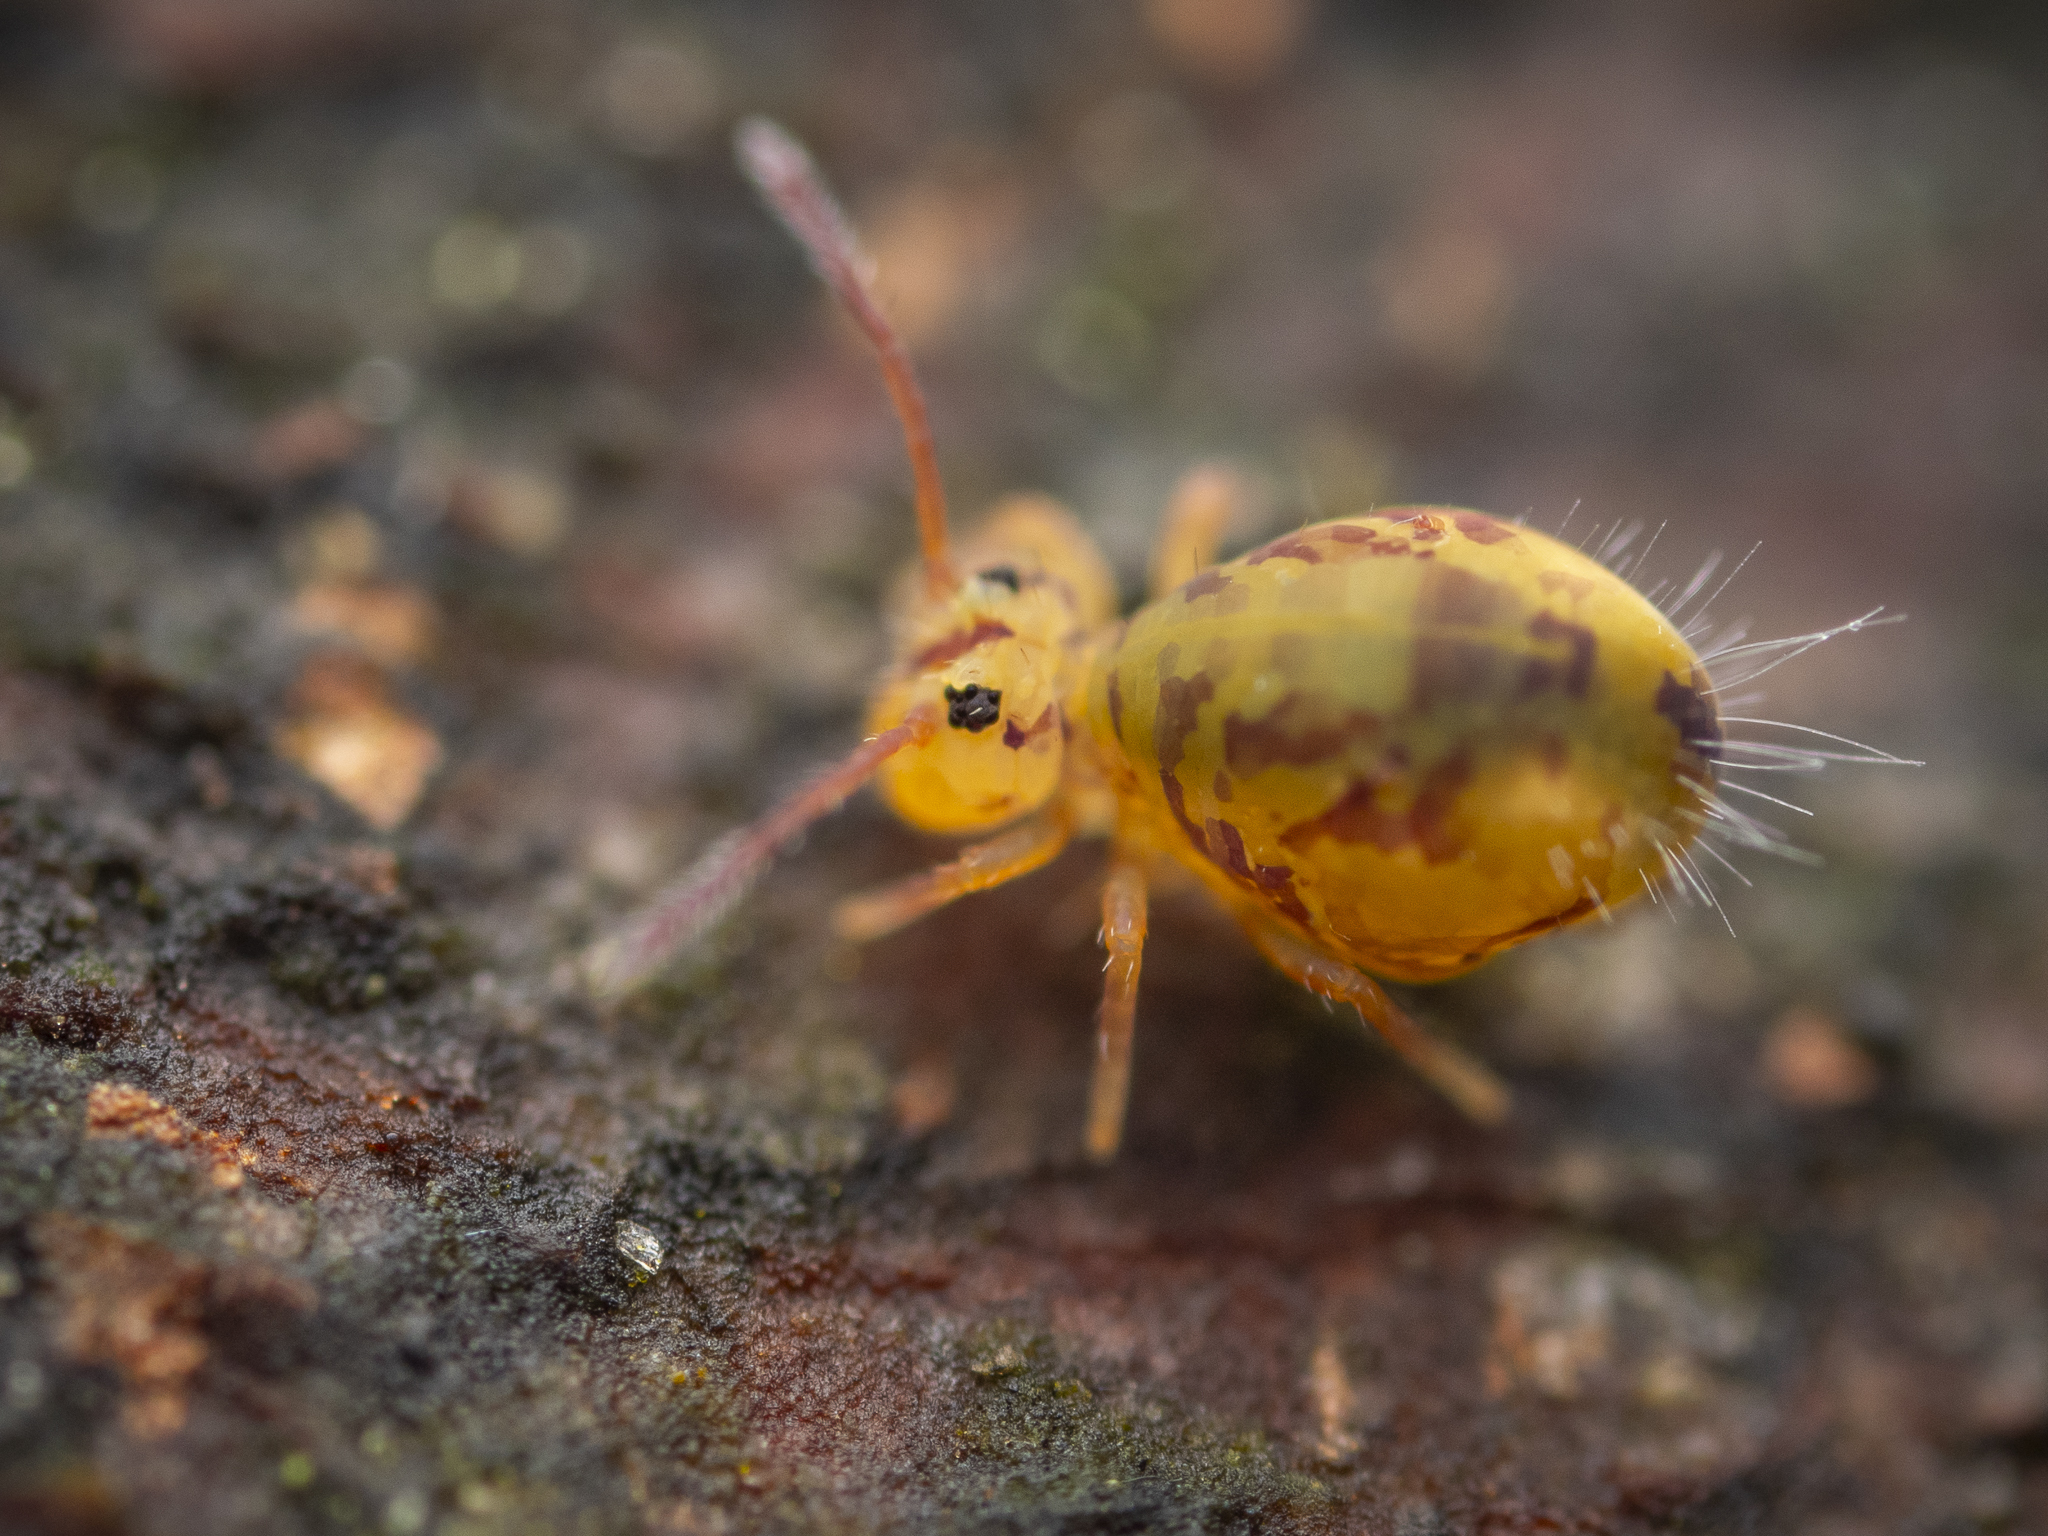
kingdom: Animalia
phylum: Arthropoda
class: Collembola
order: Symphypleona
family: Dicyrtomidae
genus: Dicyrtomina
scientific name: Dicyrtomina ornata
